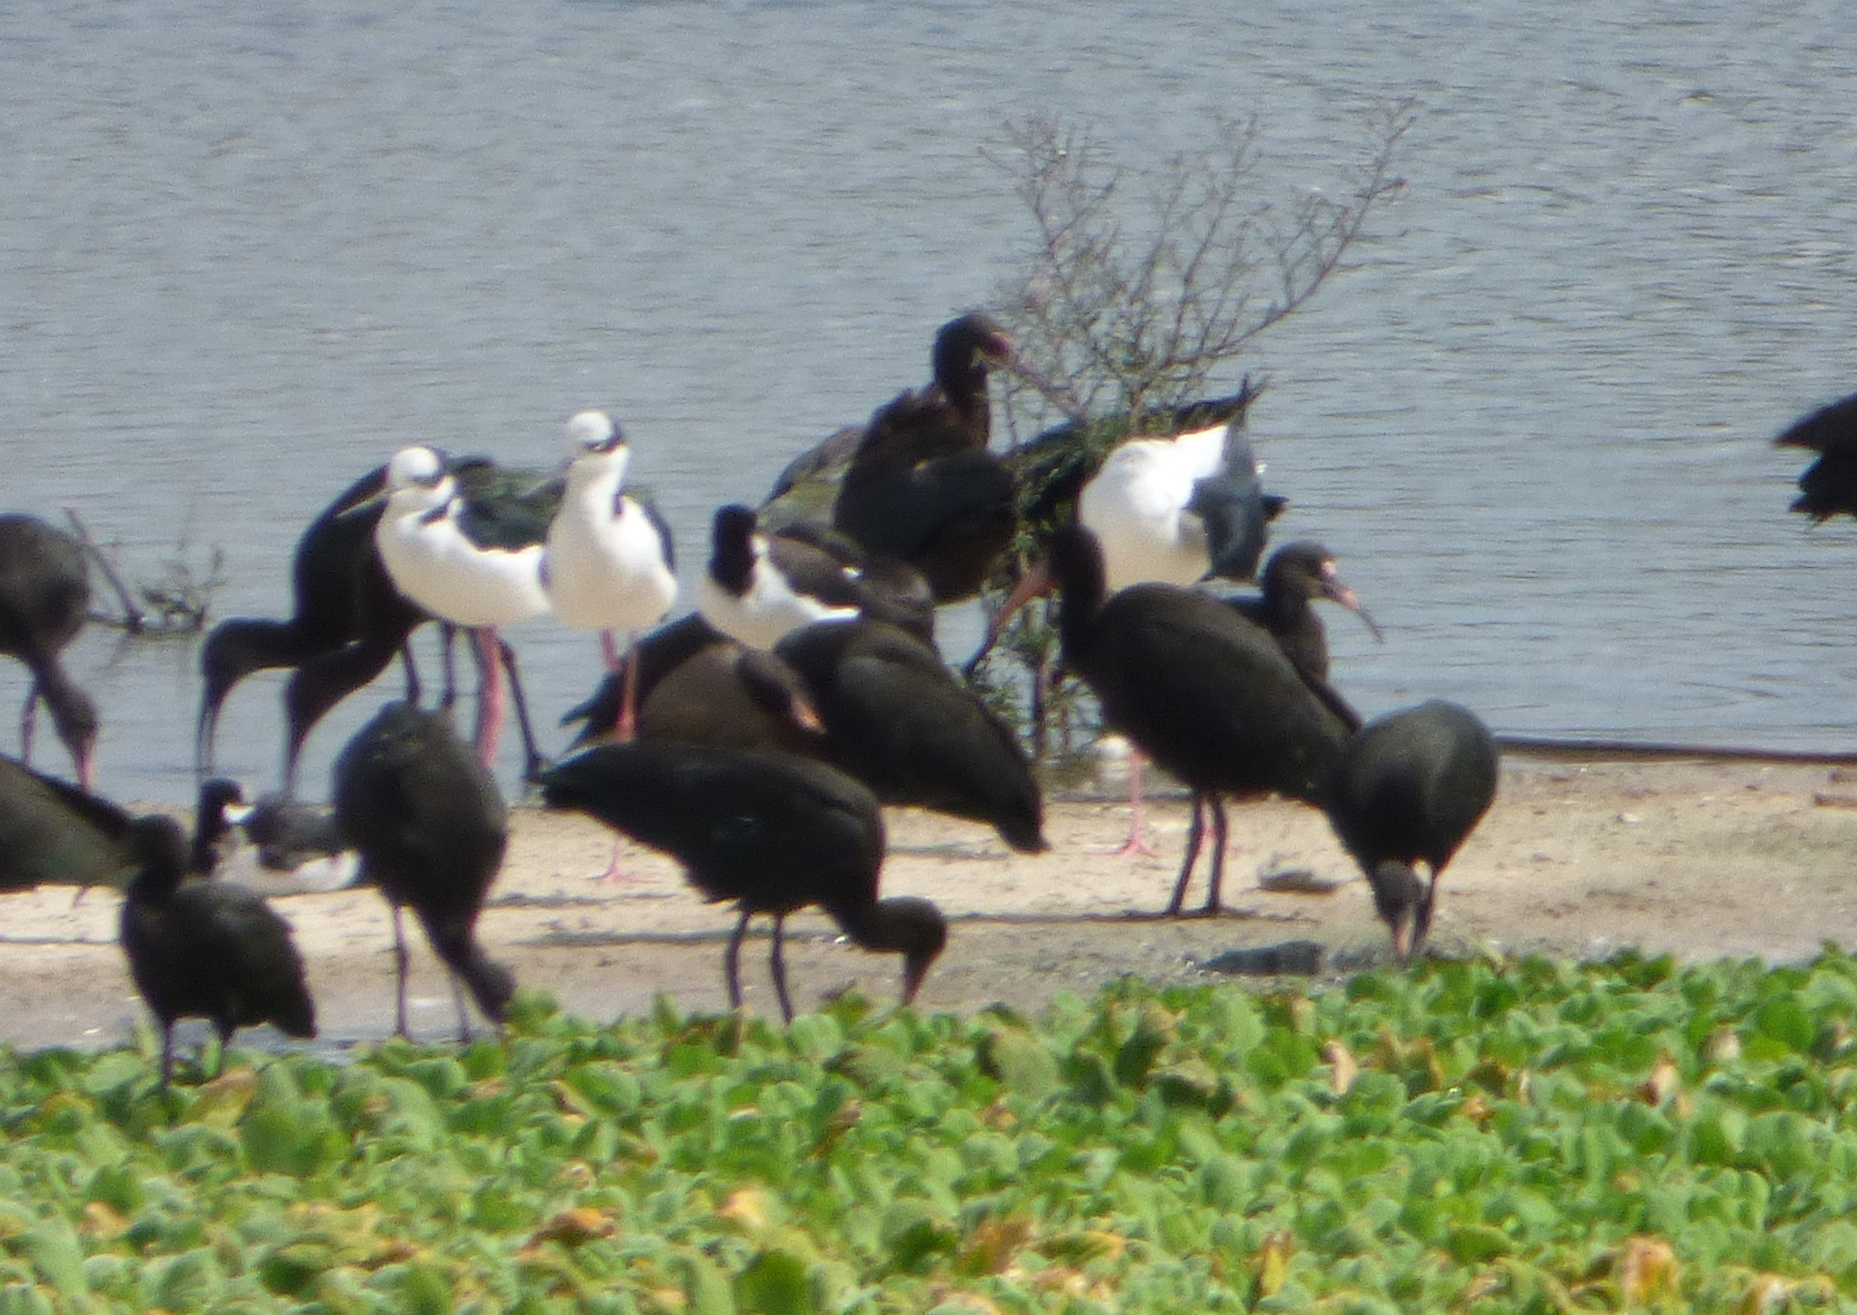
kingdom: Animalia
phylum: Chordata
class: Aves
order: Pelecaniformes
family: Threskiornithidae
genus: Phimosus
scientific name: Phimosus infuscatus
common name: Bare-faced ibis
